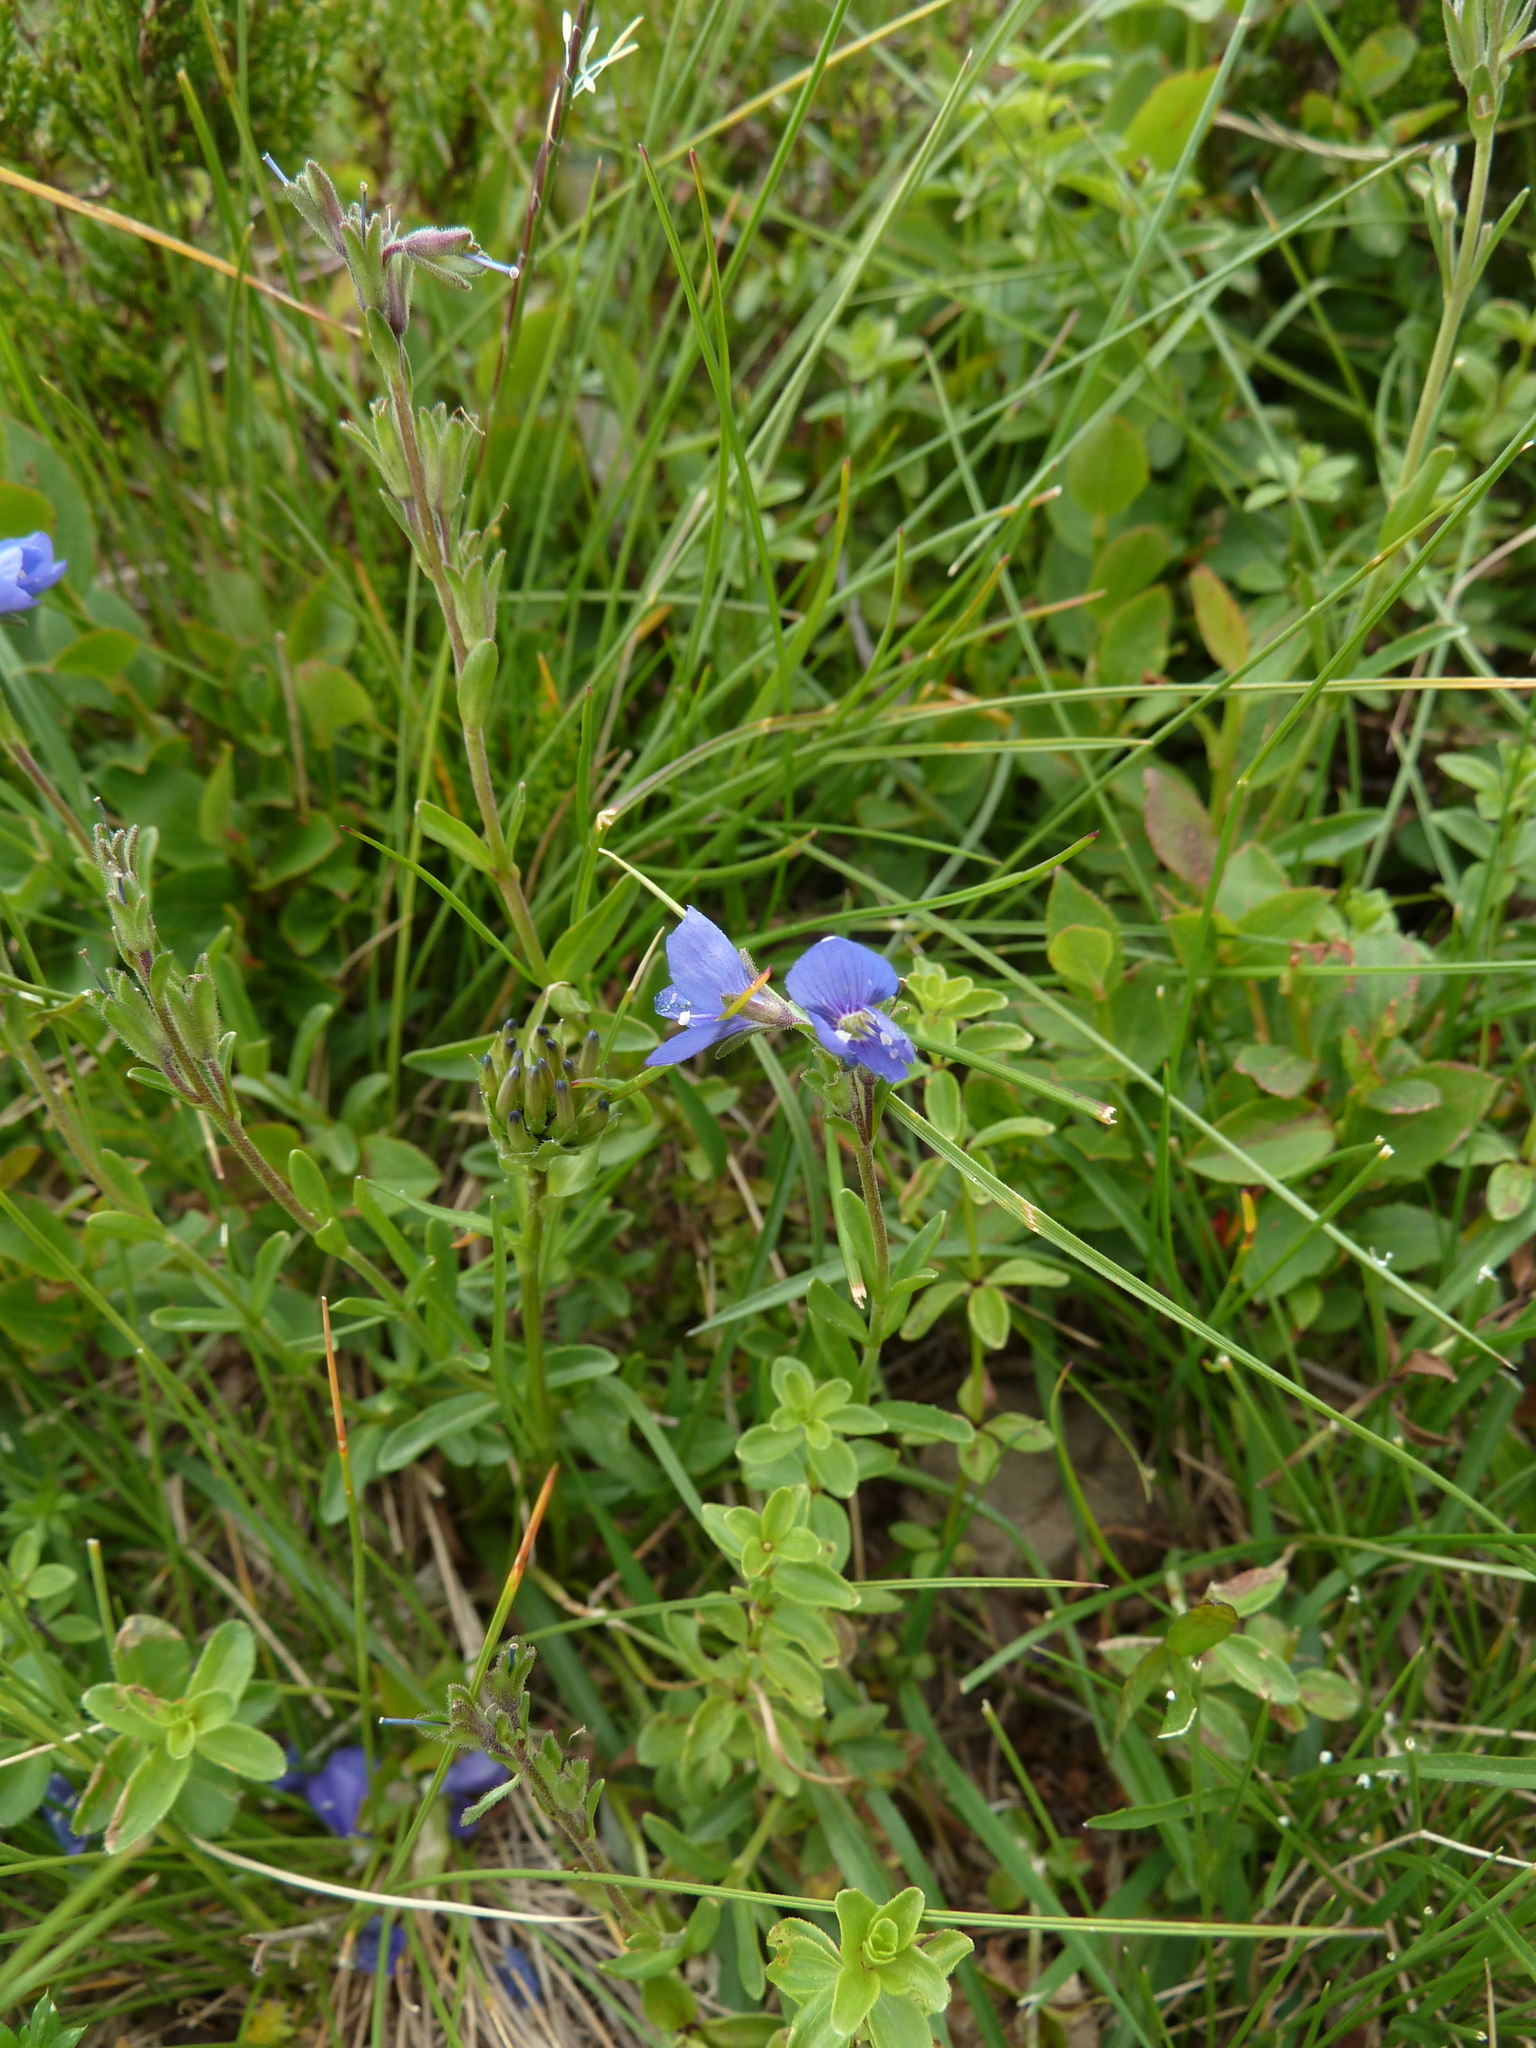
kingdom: Plantae
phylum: Tracheophyta
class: Magnoliopsida
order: Lamiales
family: Plantaginaceae
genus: Veronica
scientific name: Veronica fruticans
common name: Rock speedwell
